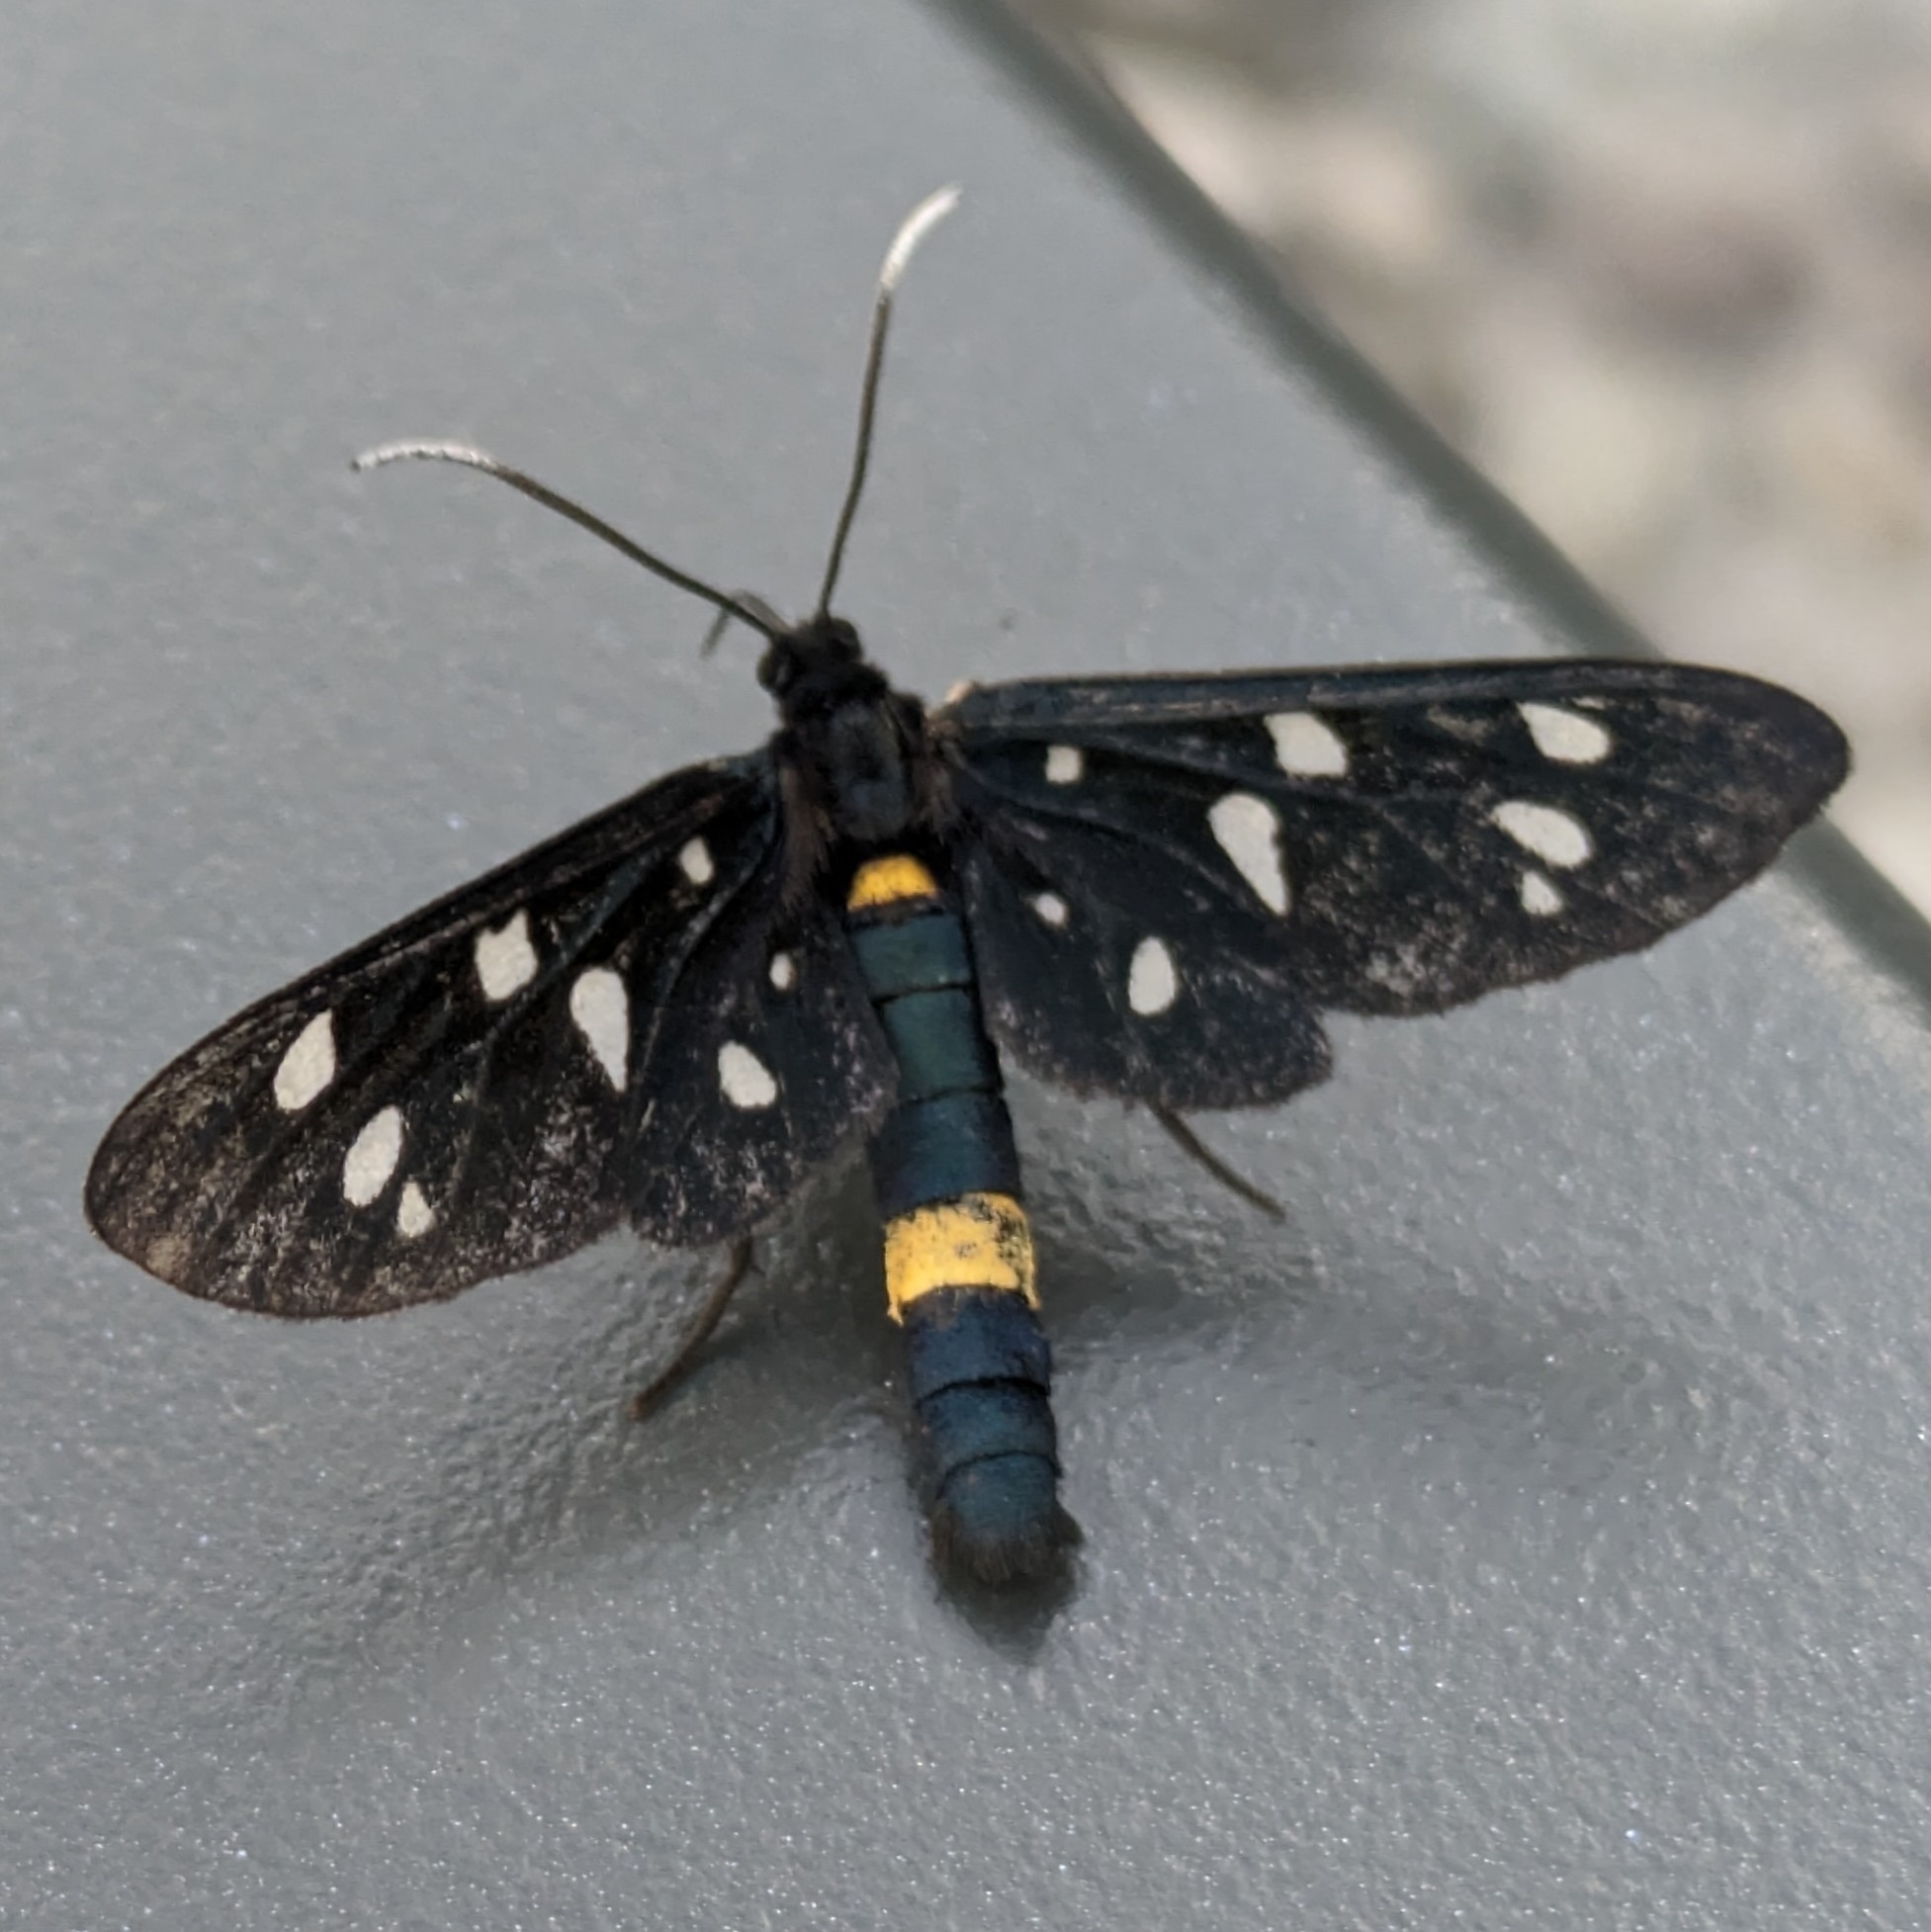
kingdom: Animalia
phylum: Arthropoda
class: Insecta
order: Lepidoptera
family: Erebidae
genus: Amata
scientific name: Amata phegea
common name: Nine-spotted
